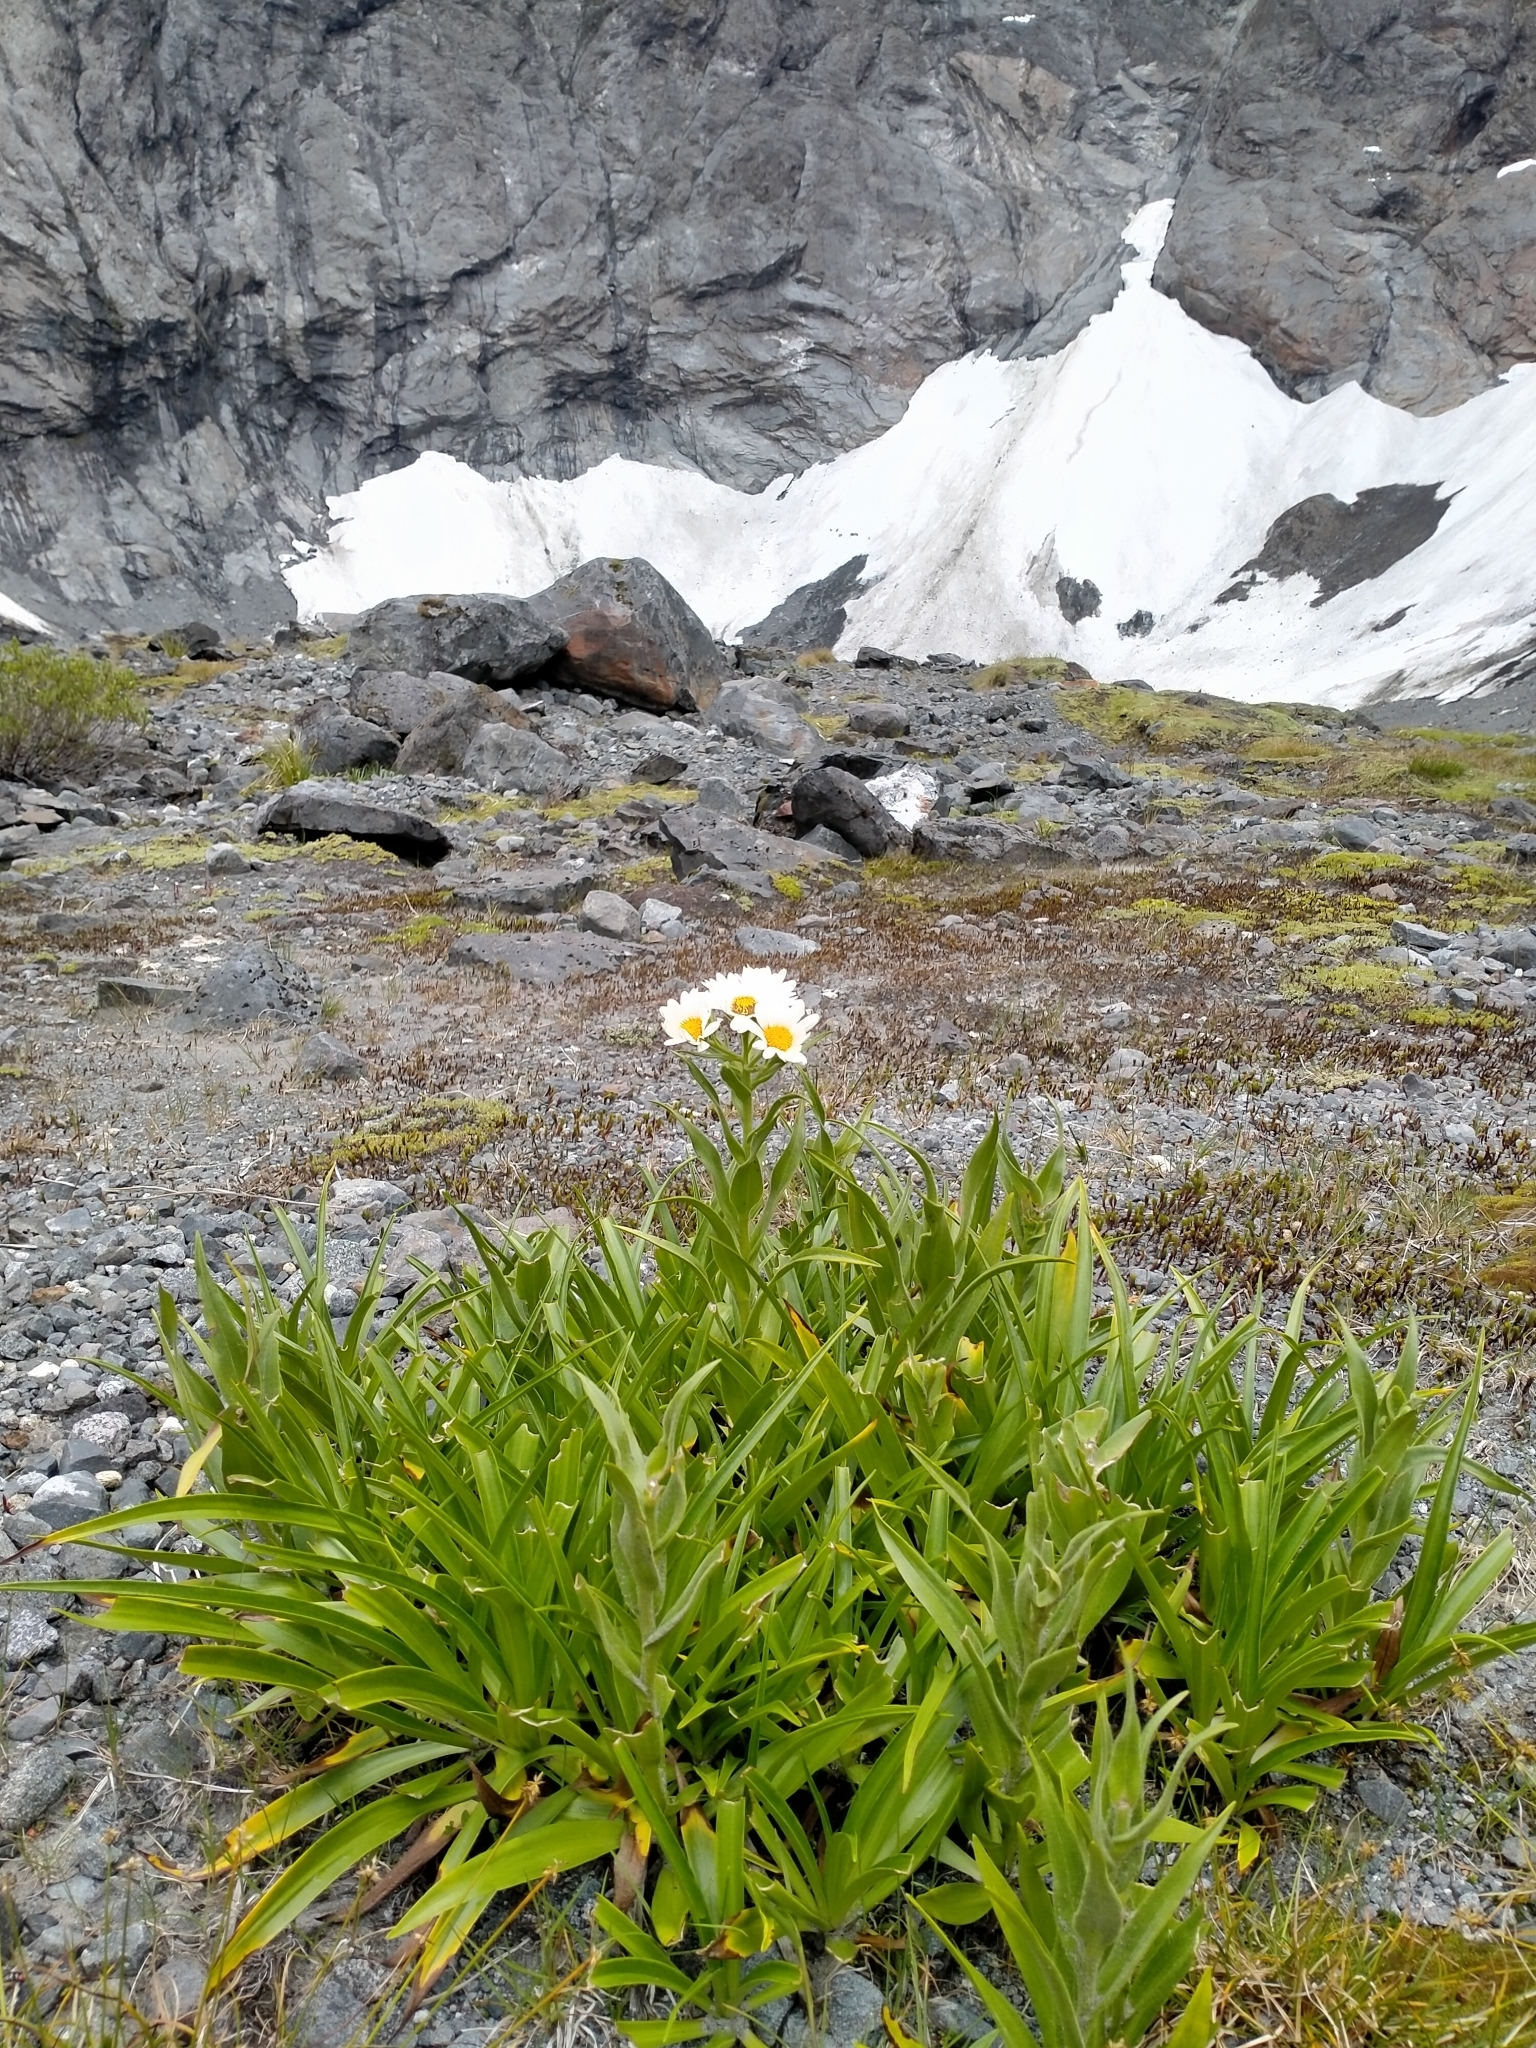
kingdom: Plantae
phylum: Tracheophyta
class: Magnoliopsida
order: Asterales
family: Asteraceae
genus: Dolichoglottis
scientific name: Dolichoglottis scorzoneroides
